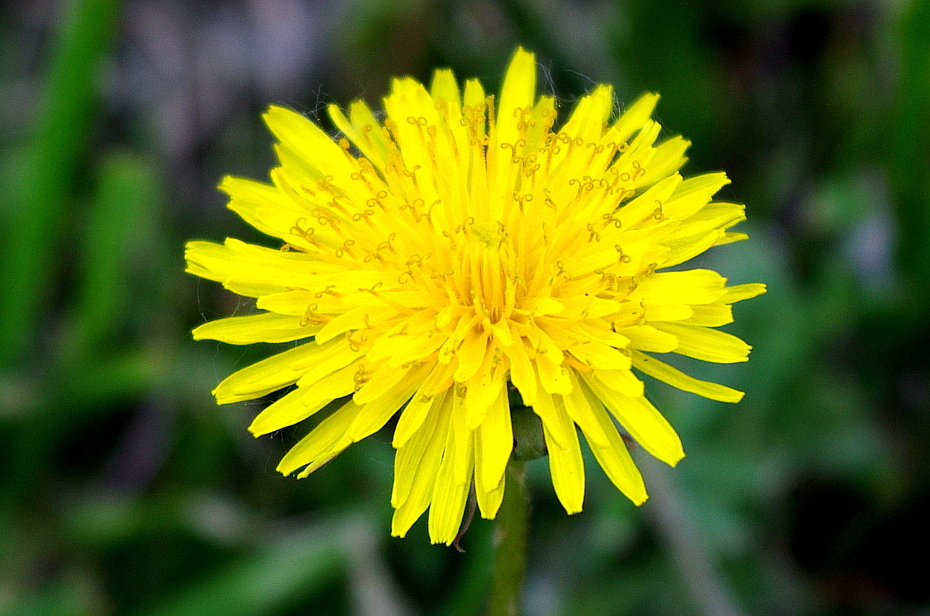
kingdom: Plantae
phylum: Tracheophyta
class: Magnoliopsida
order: Asterales
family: Asteraceae
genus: Taraxacum
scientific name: Taraxacum officinale
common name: Common dandelion
